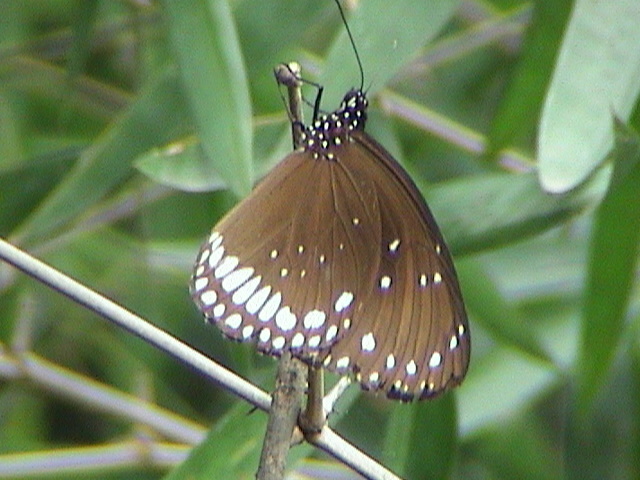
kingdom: Animalia
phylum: Arthropoda
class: Insecta
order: Lepidoptera
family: Nymphalidae
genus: Junonia
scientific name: Junonia hierta
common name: Yellow pansy
